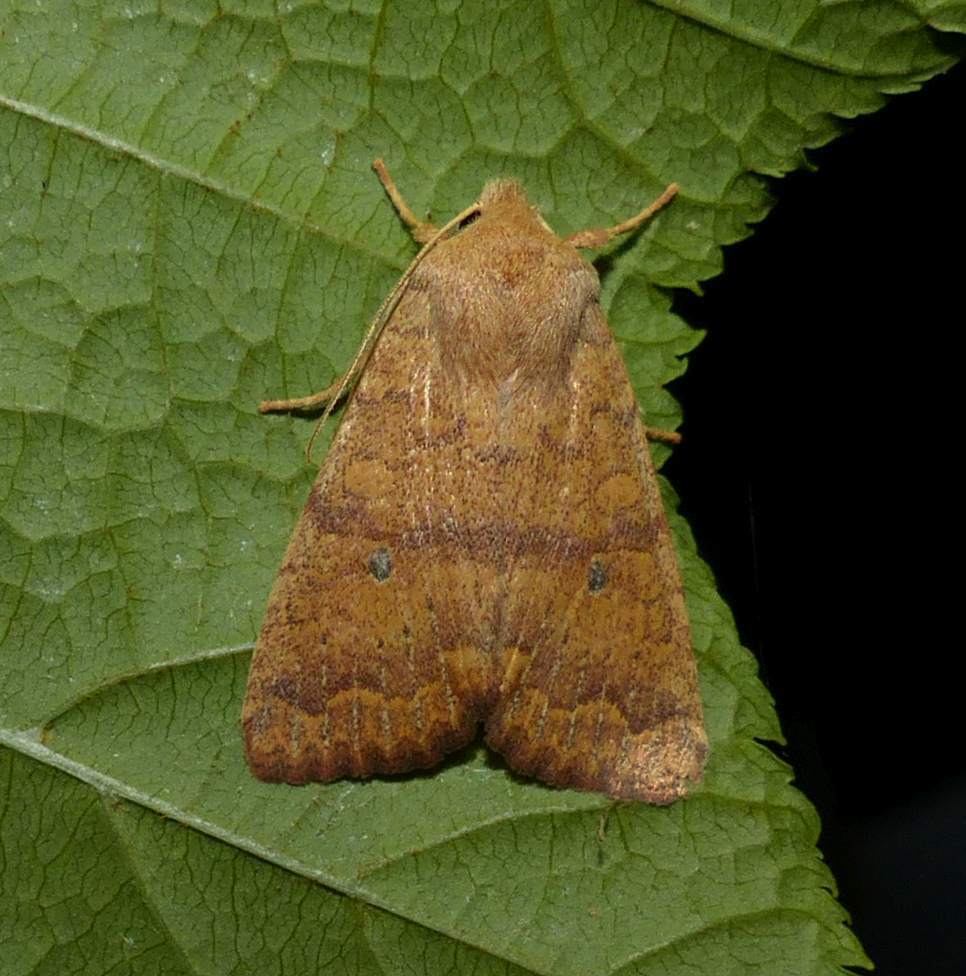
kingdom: Animalia
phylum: Arthropoda
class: Insecta
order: Lepidoptera
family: Noctuidae
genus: Agrochola
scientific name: Agrochola bicolorago
